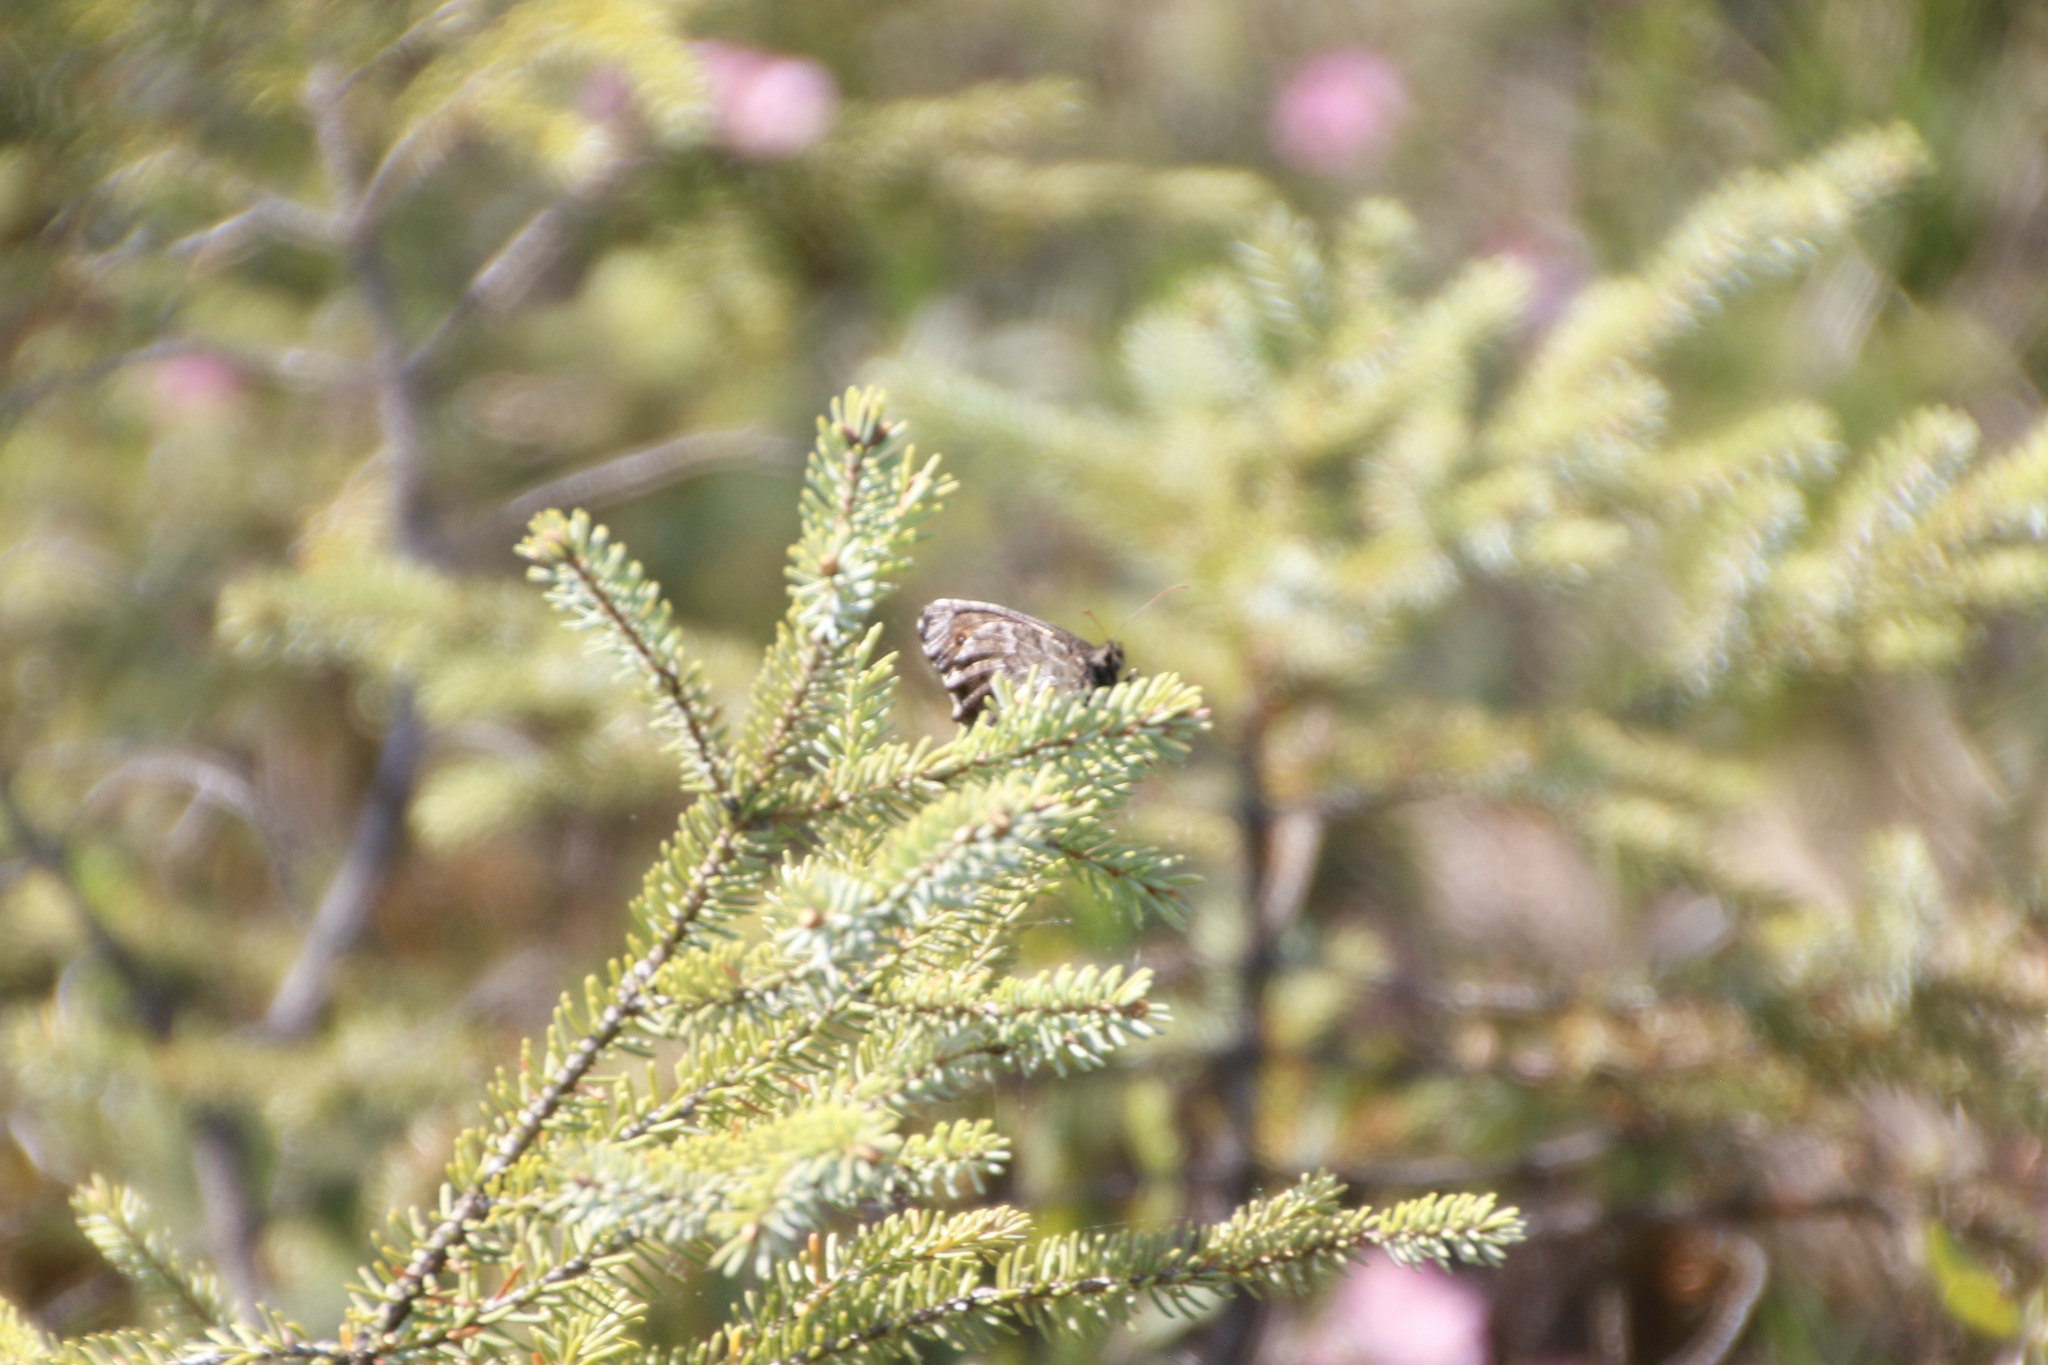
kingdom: Animalia
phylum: Arthropoda
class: Insecta
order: Lepidoptera
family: Nymphalidae
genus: Oeneis
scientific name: Oeneis jutta
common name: Baltic grayling
